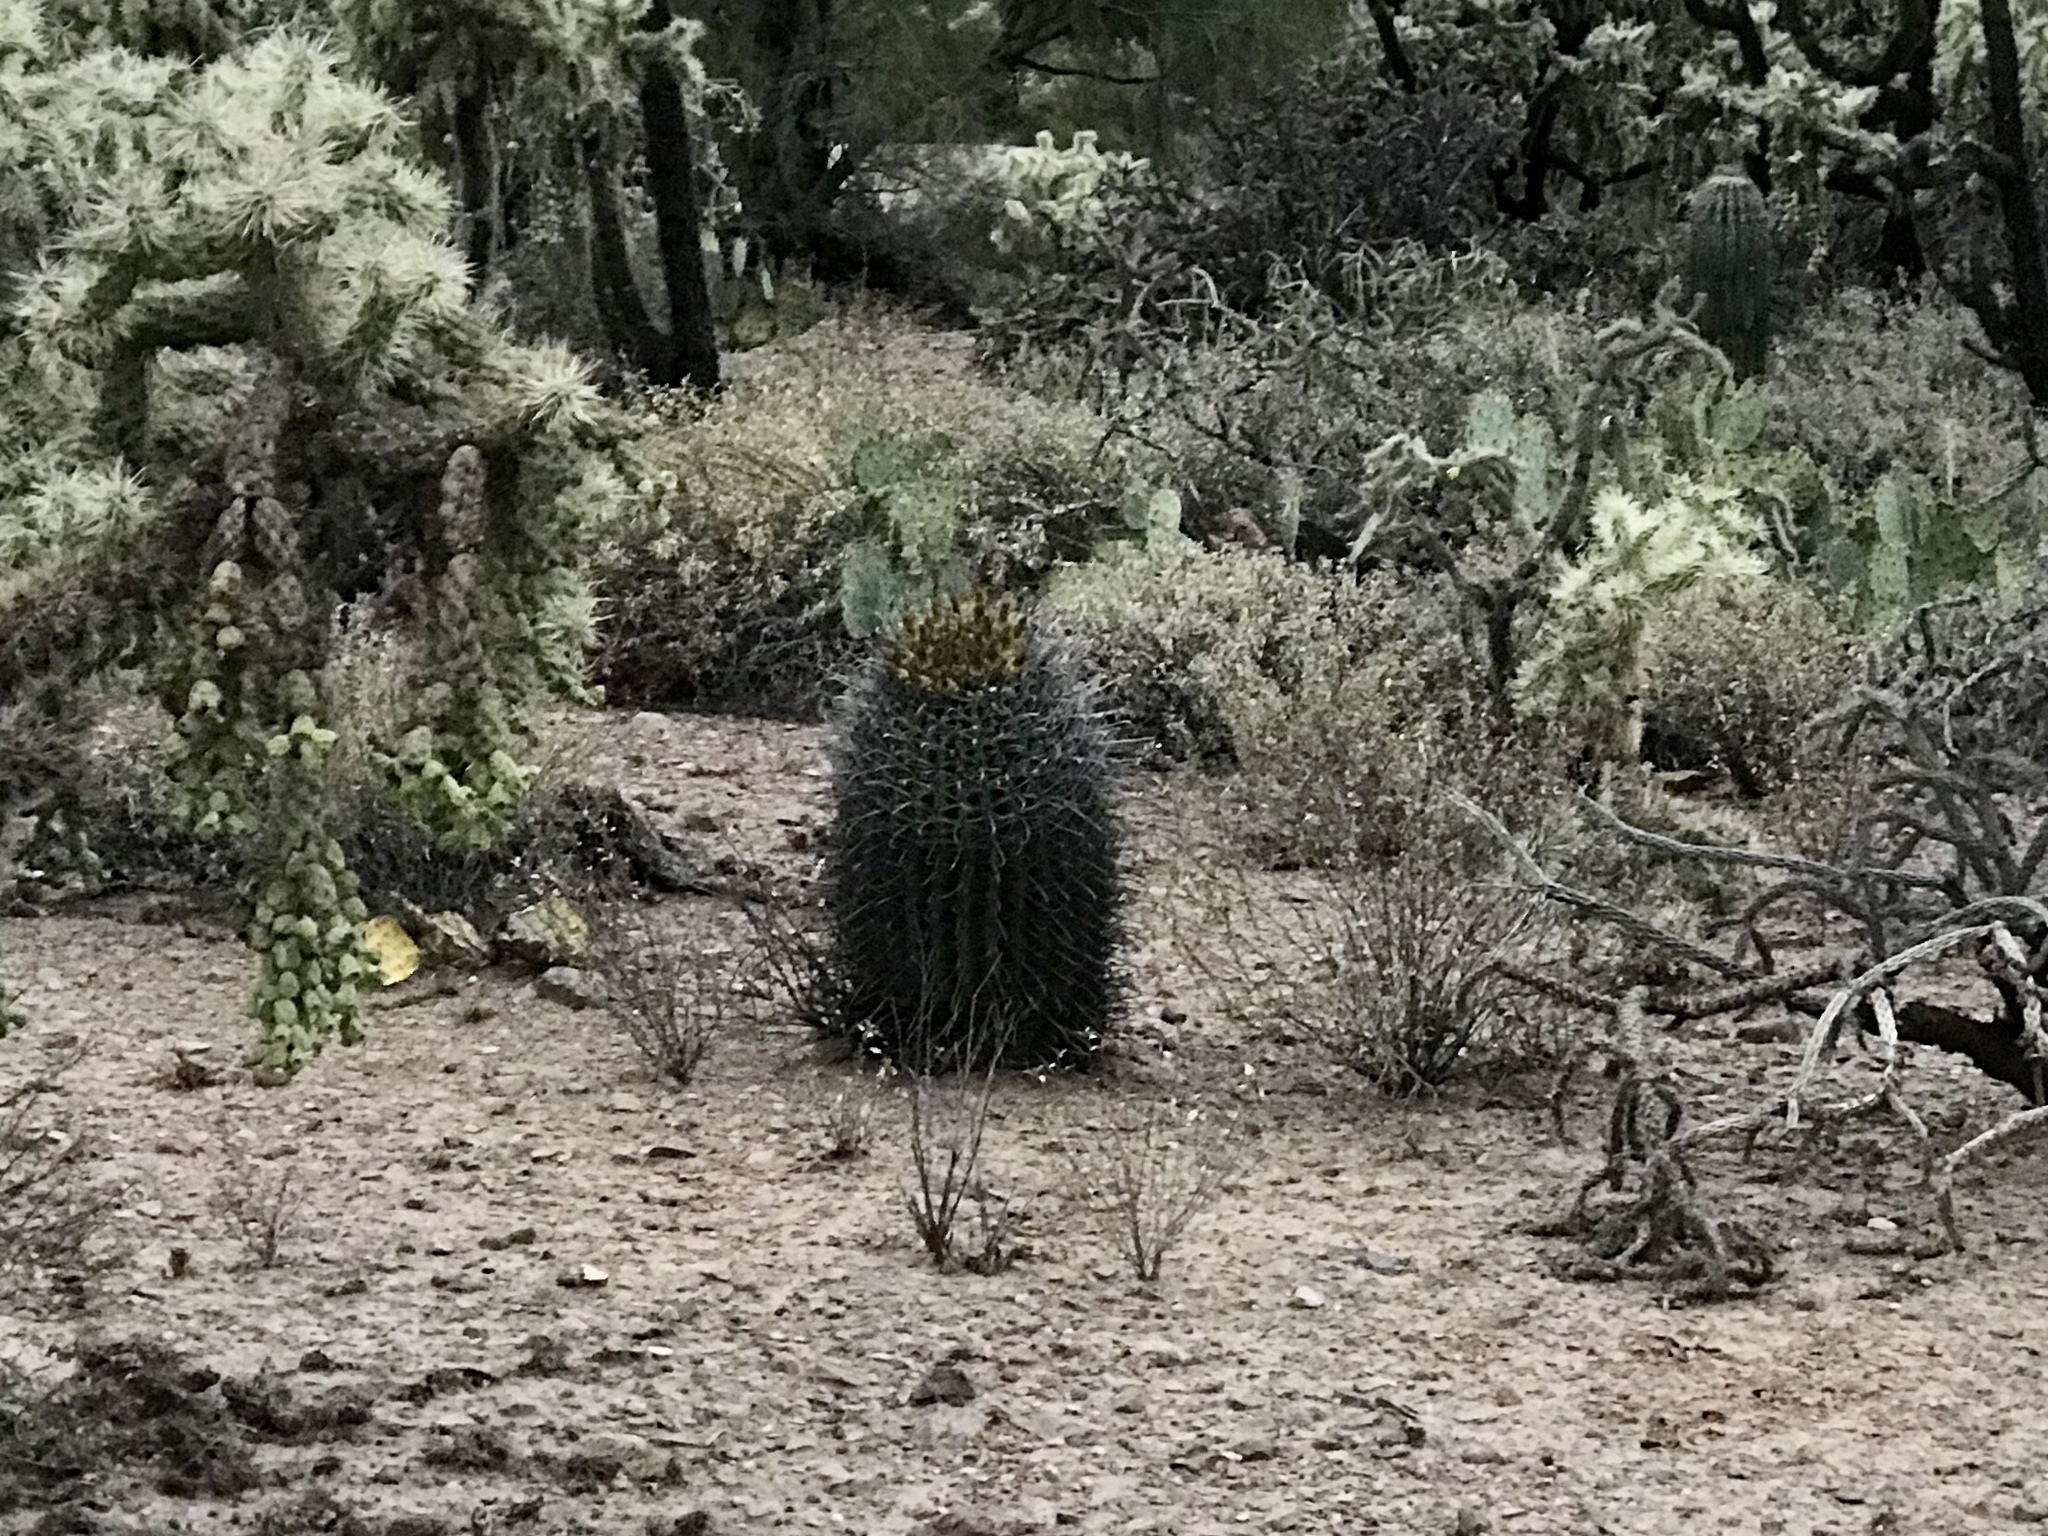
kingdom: Plantae
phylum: Tracheophyta
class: Magnoliopsida
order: Caryophyllales
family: Cactaceae
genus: Ferocactus
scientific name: Ferocactus wislizeni
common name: Candy barrel cactus
